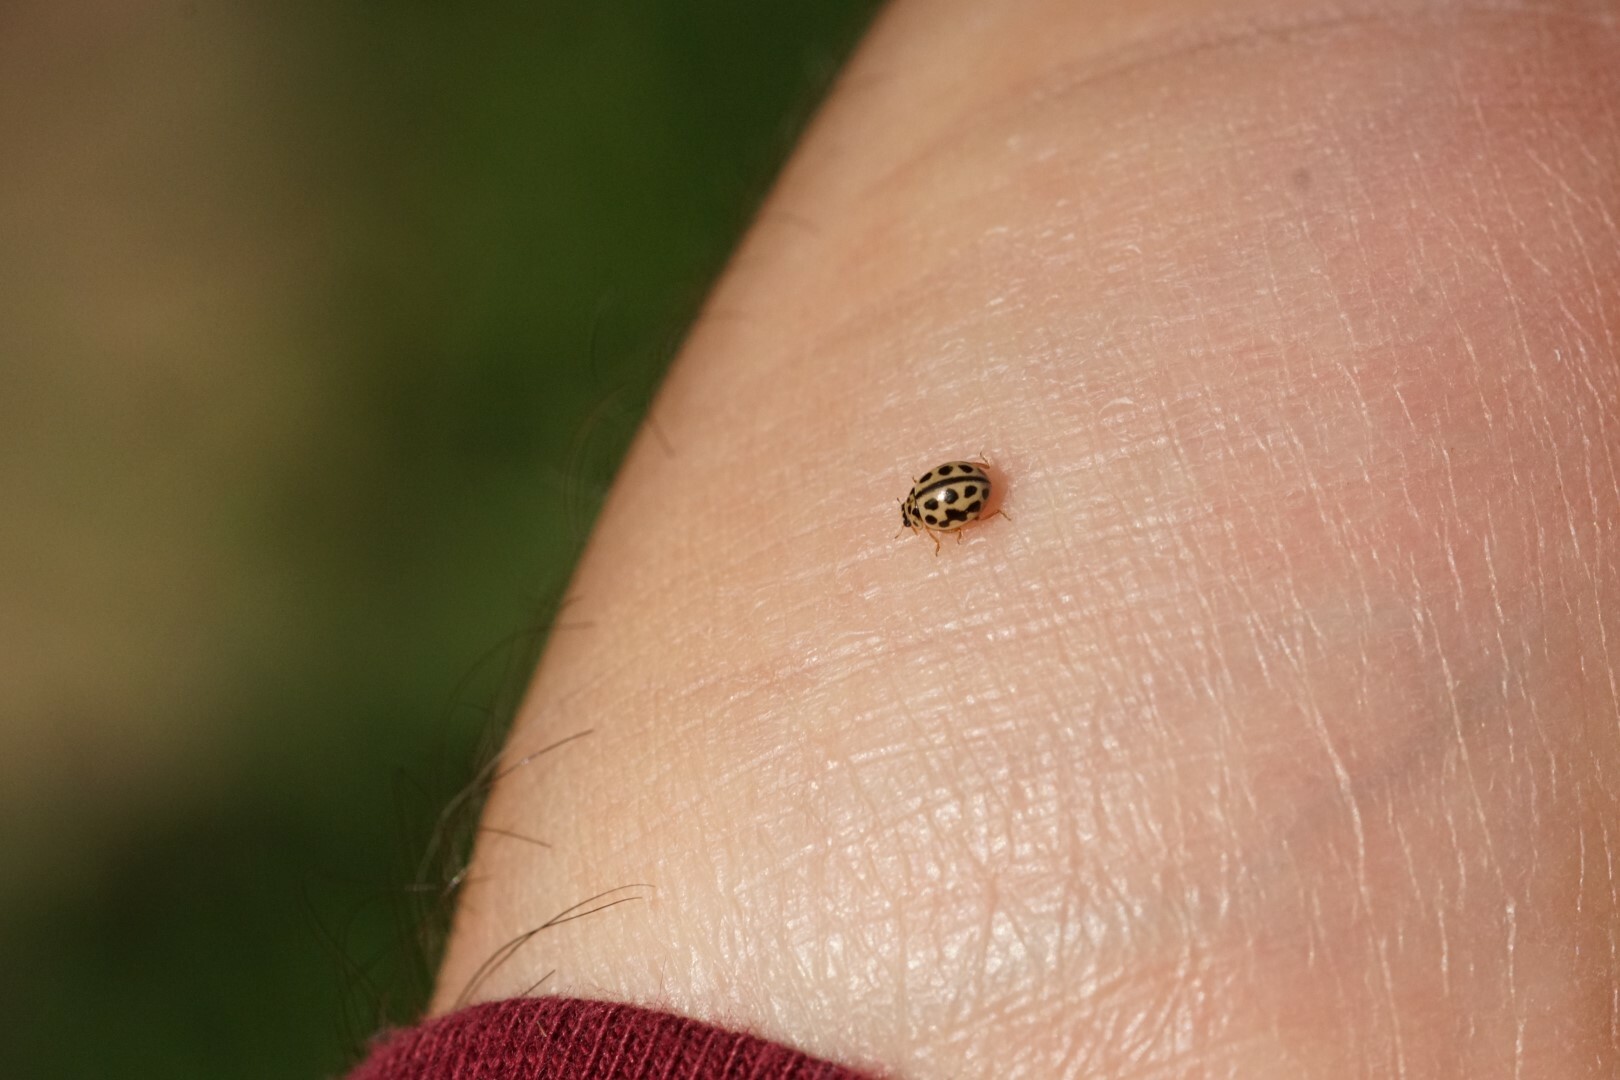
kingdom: Animalia
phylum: Arthropoda
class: Insecta
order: Coleoptera
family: Coccinellidae
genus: Tytthaspis
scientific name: Tytthaspis sedecimpunctata
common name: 16-spot ladybird
